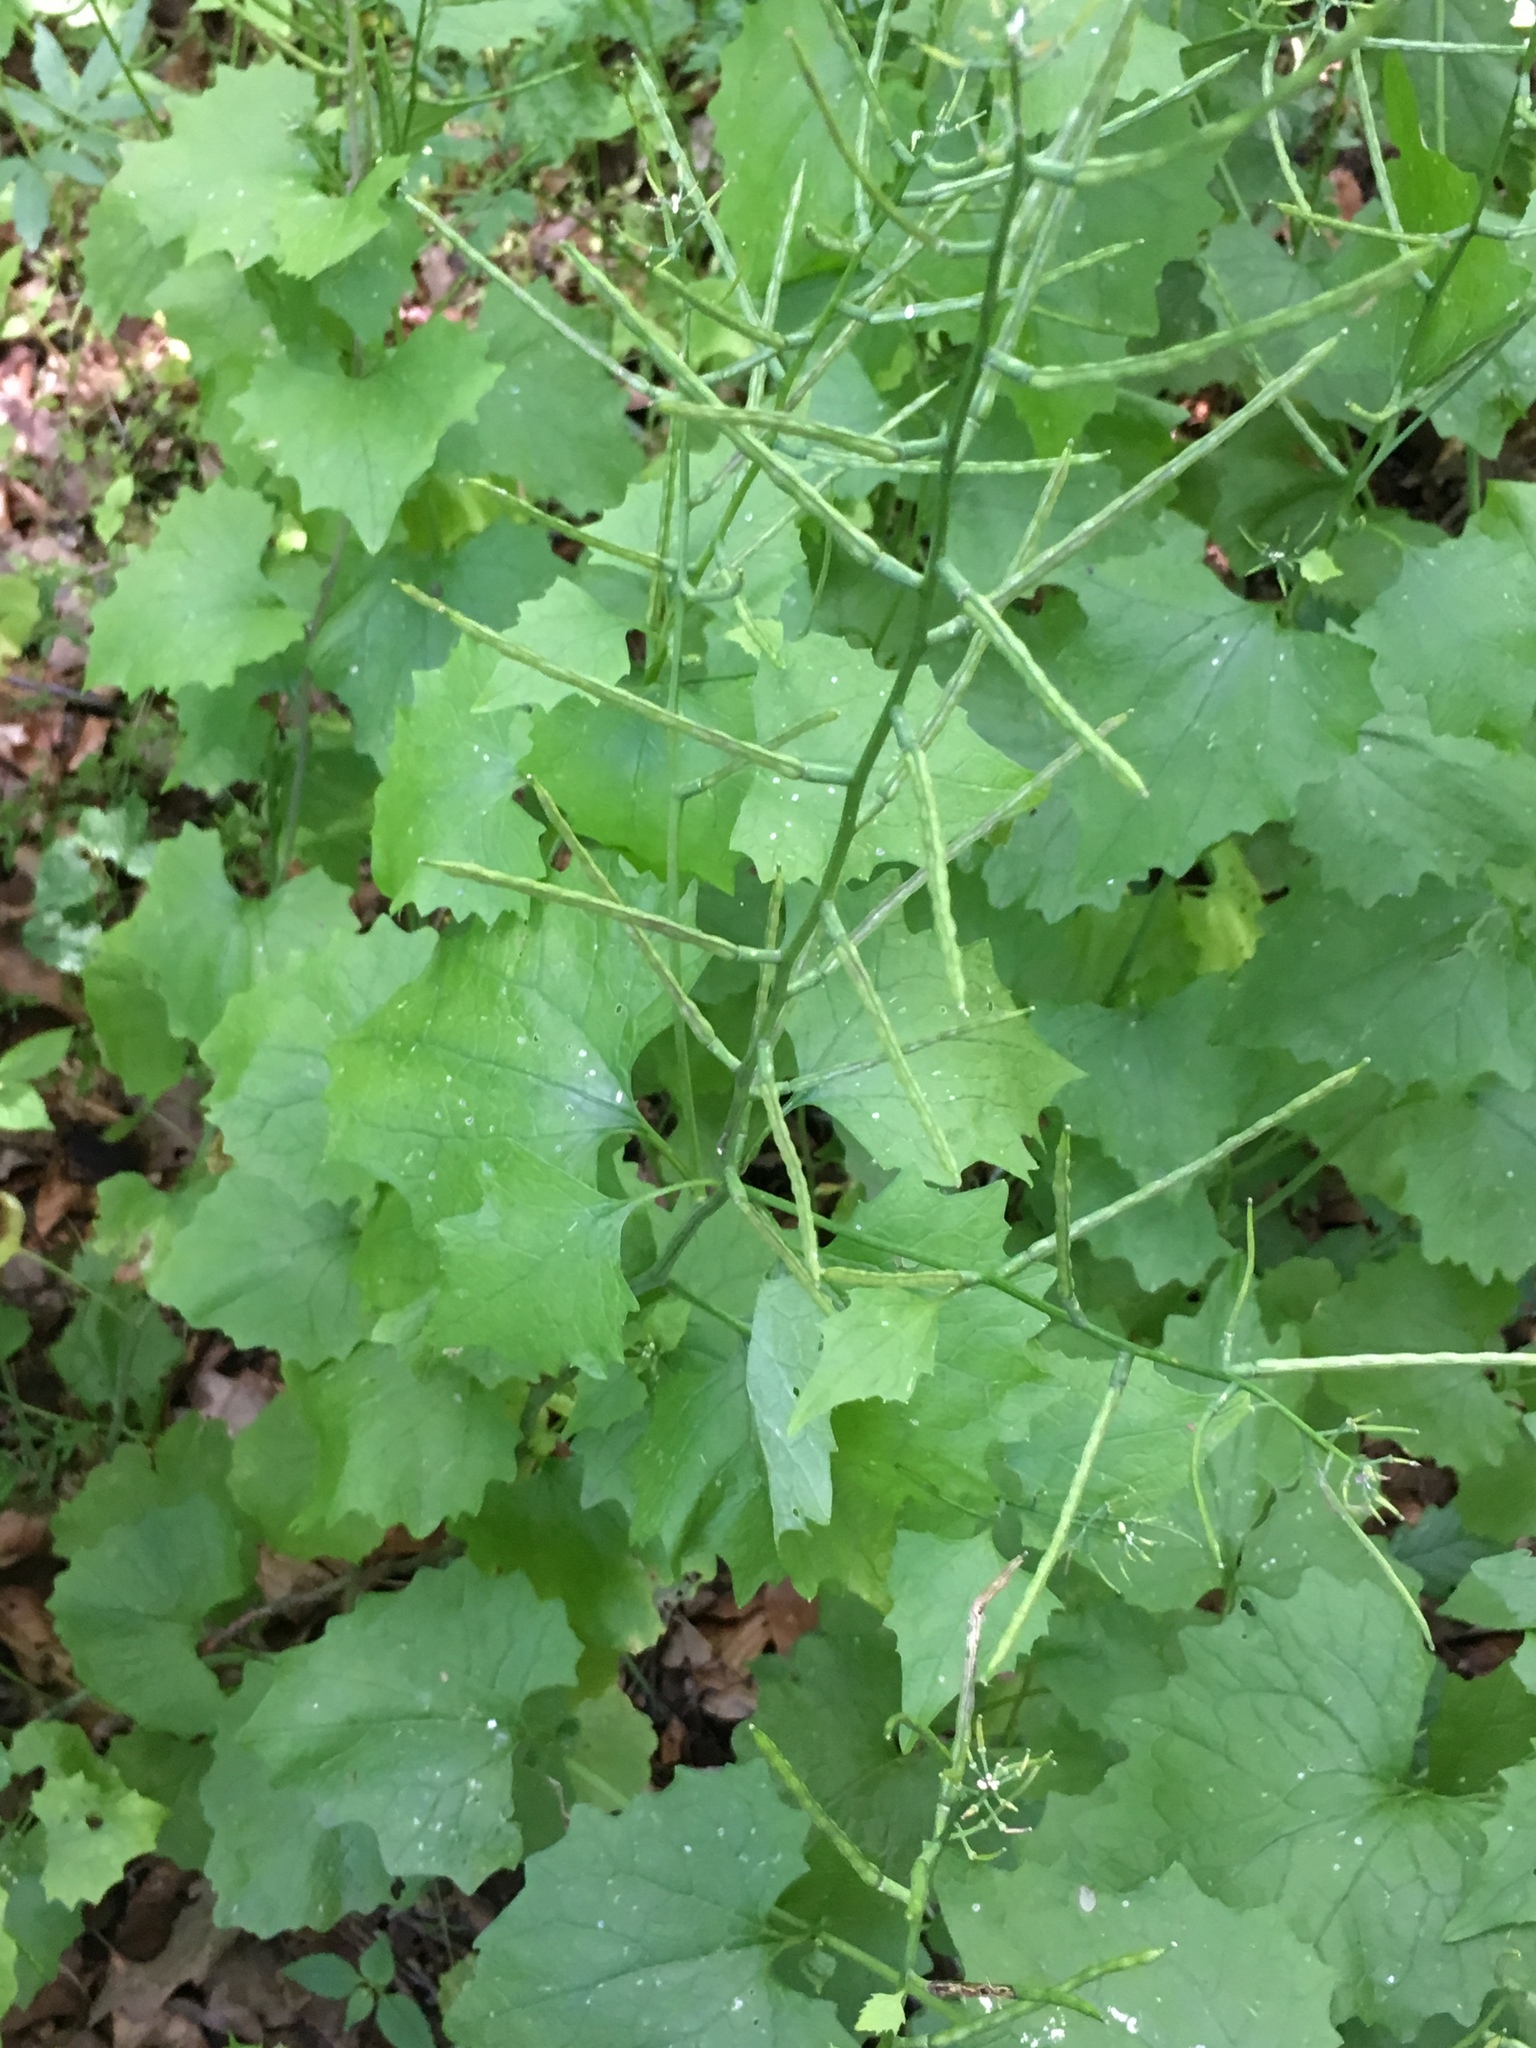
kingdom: Plantae
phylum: Tracheophyta
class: Magnoliopsida
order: Brassicales
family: Brassicaceae
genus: Alliaria
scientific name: Alliaria petiolata
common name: Garlic mustard
